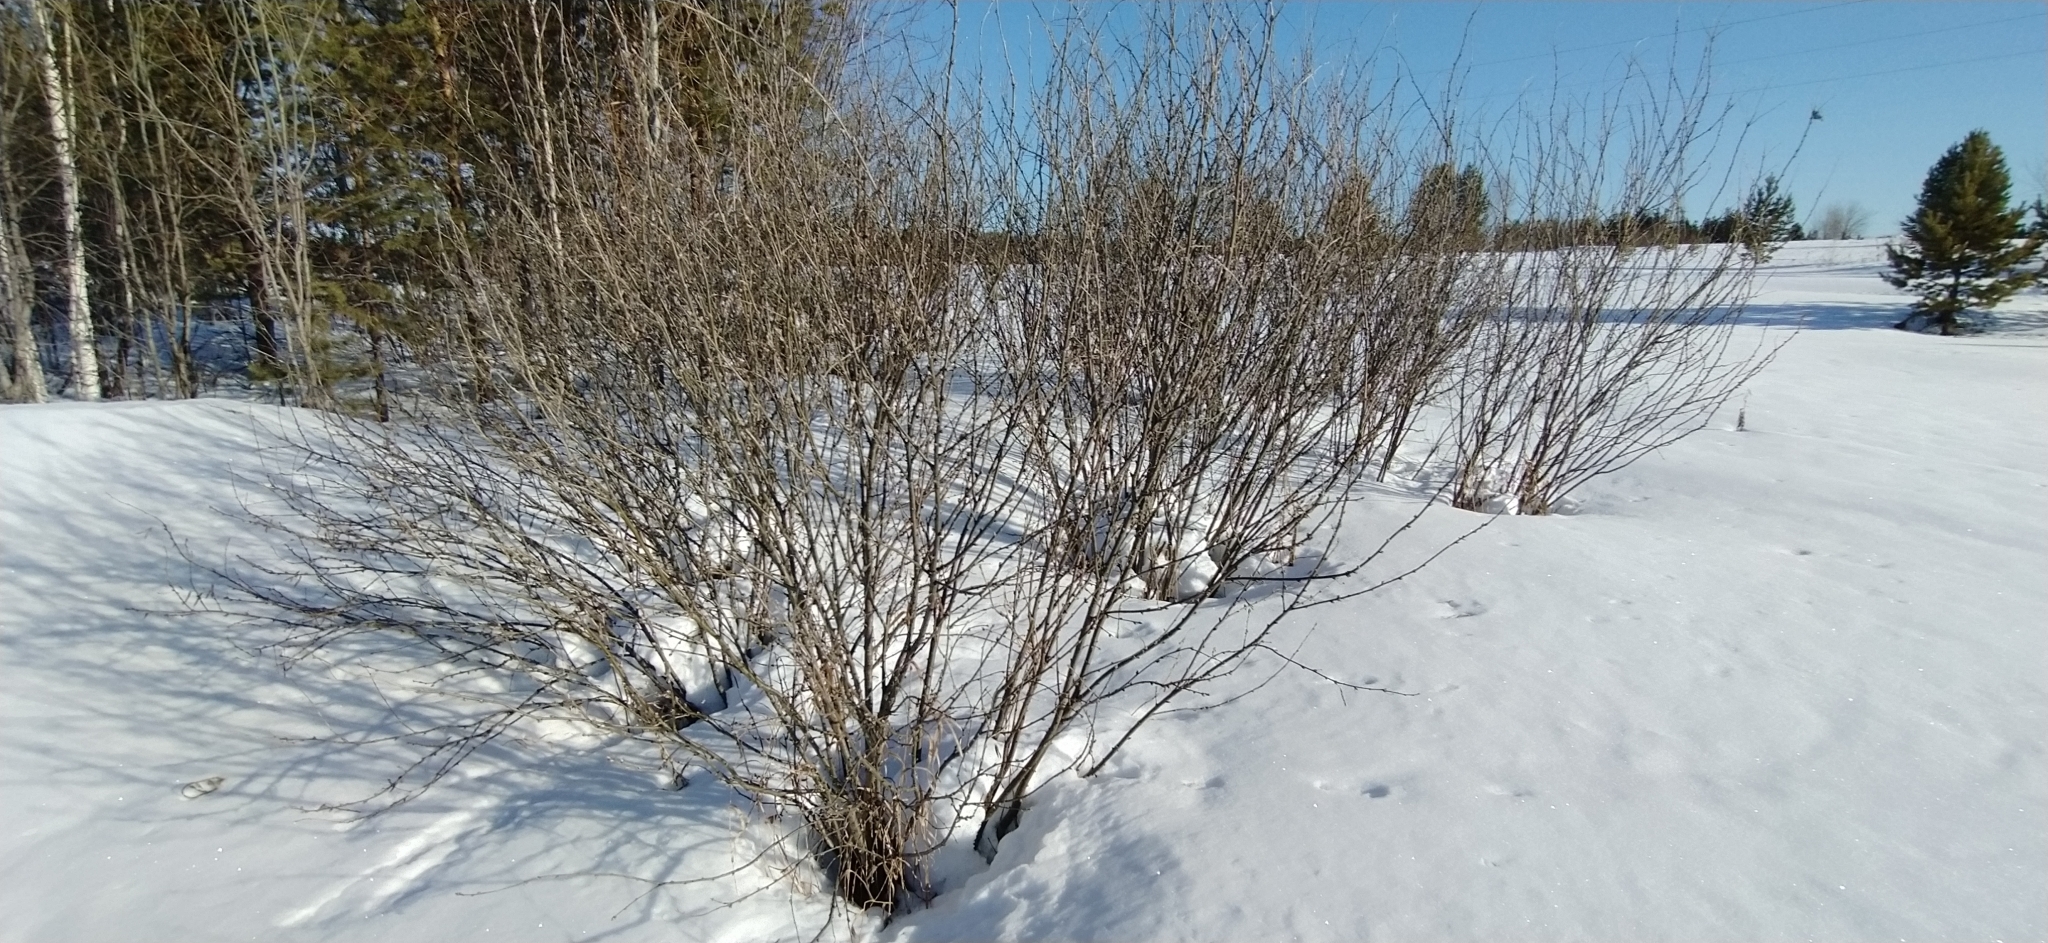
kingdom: Plantae
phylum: Tracheophyta
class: Magnoliopsida
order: Fabales
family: Fabaceae
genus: Caragana
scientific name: Caragana arborescens
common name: Siberian peashrub
